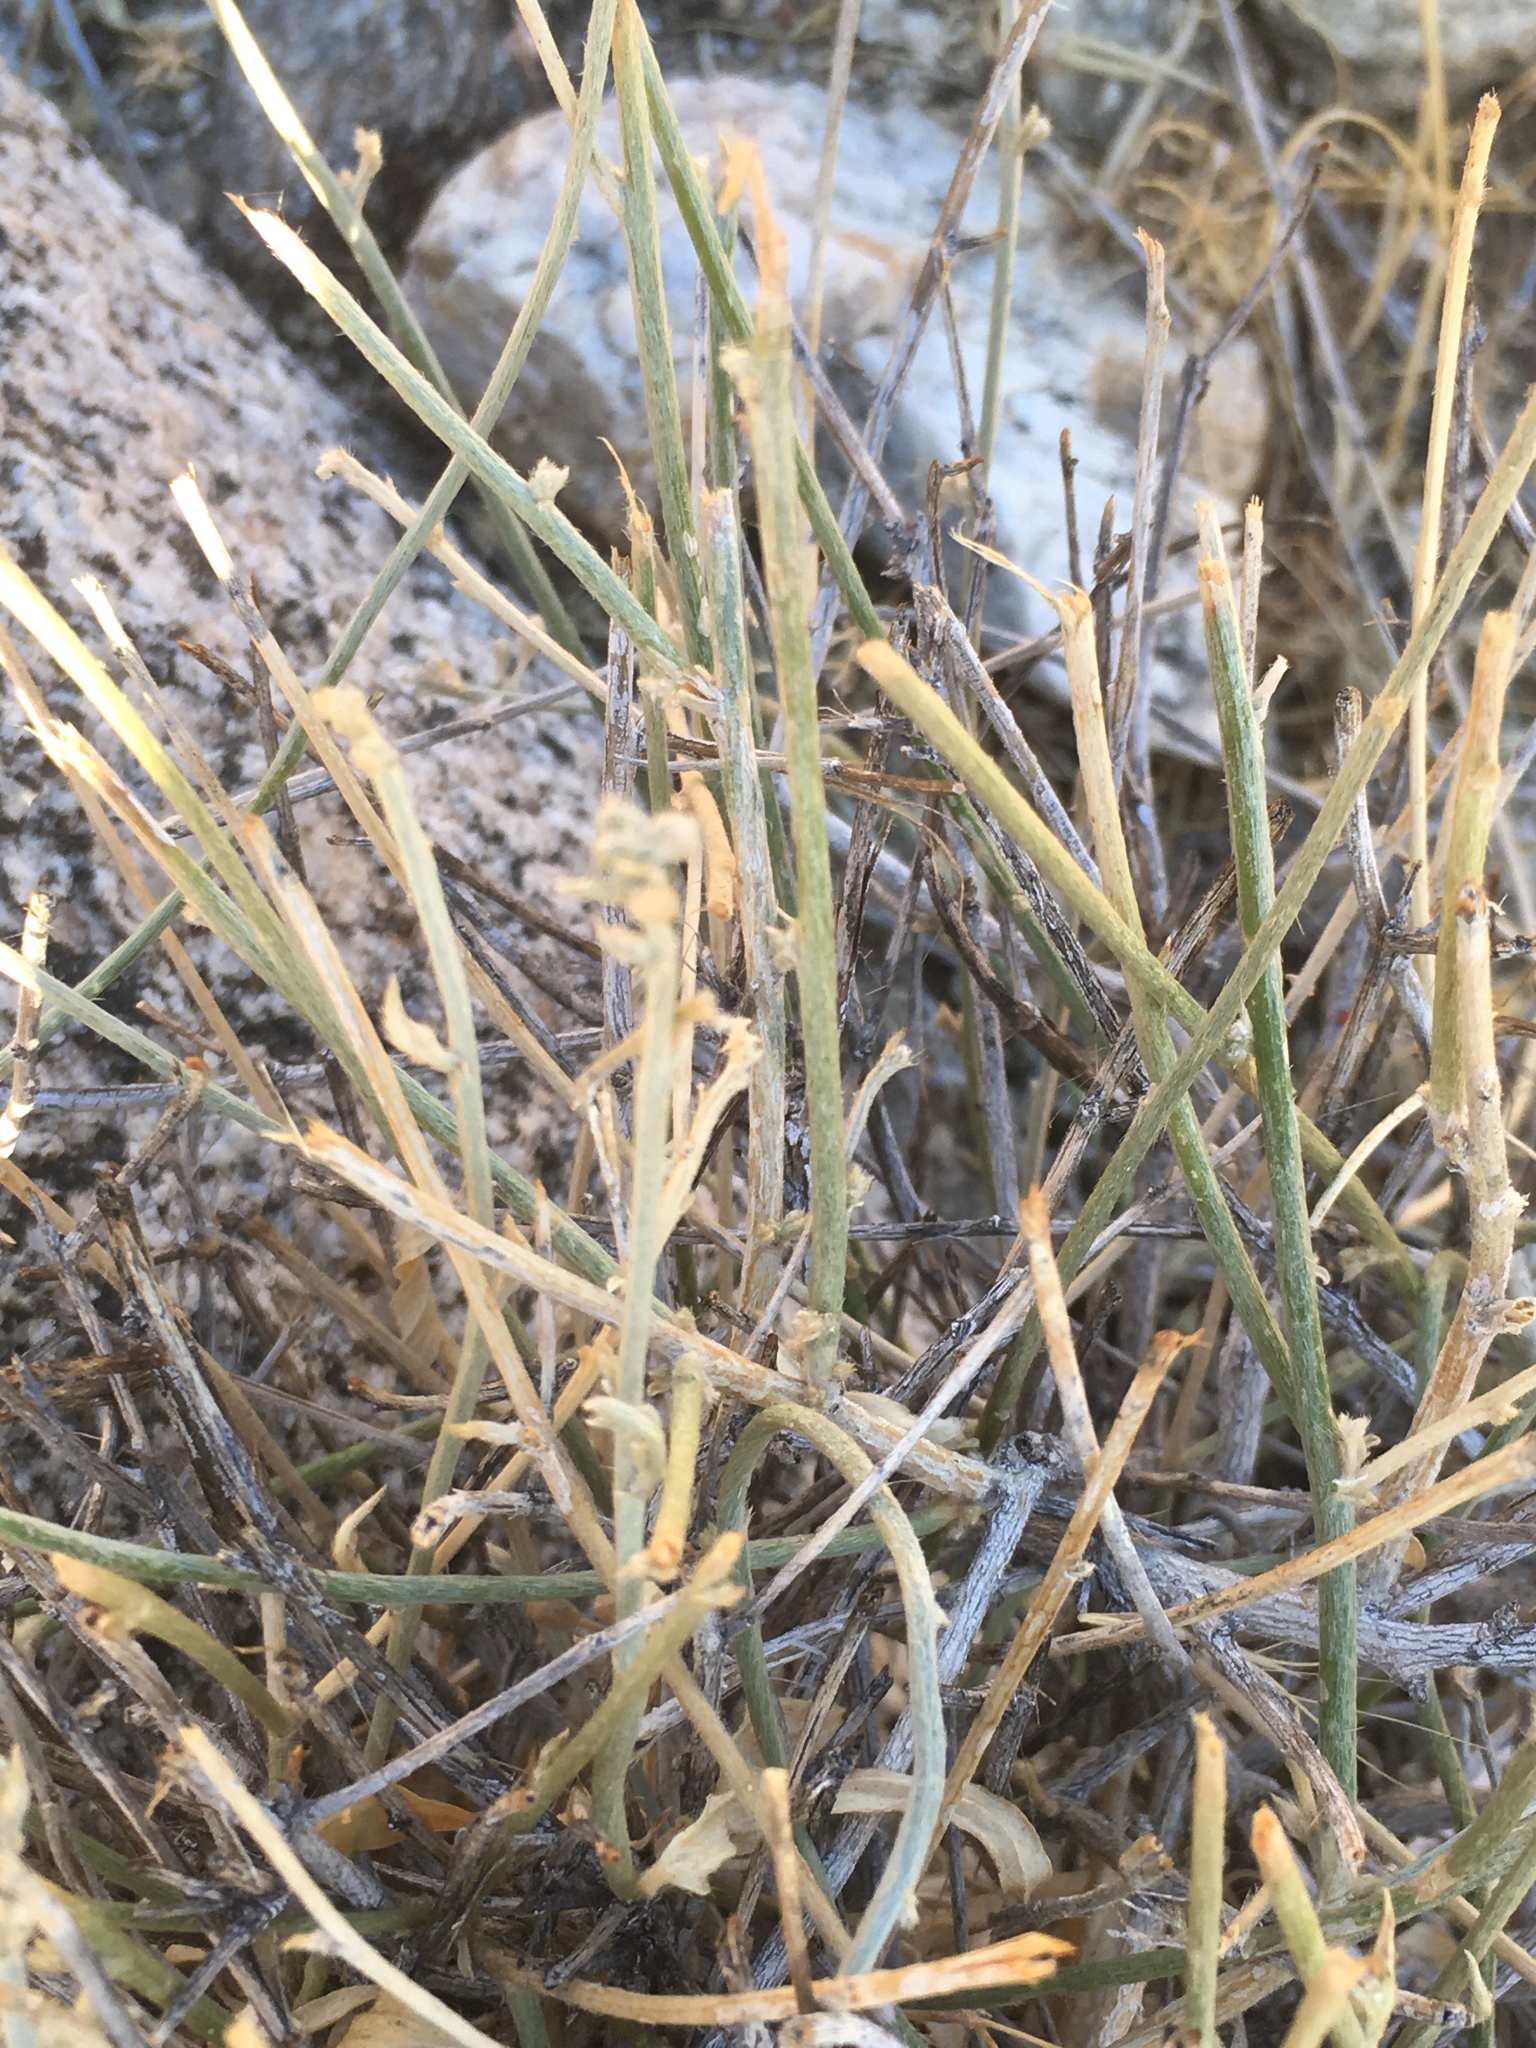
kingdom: Plantae
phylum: Tracheophyta
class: Magnoliopsida
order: Malpighiales
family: Euphorbiaceae
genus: Ditaxis
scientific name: Ditaxis lanceolata
